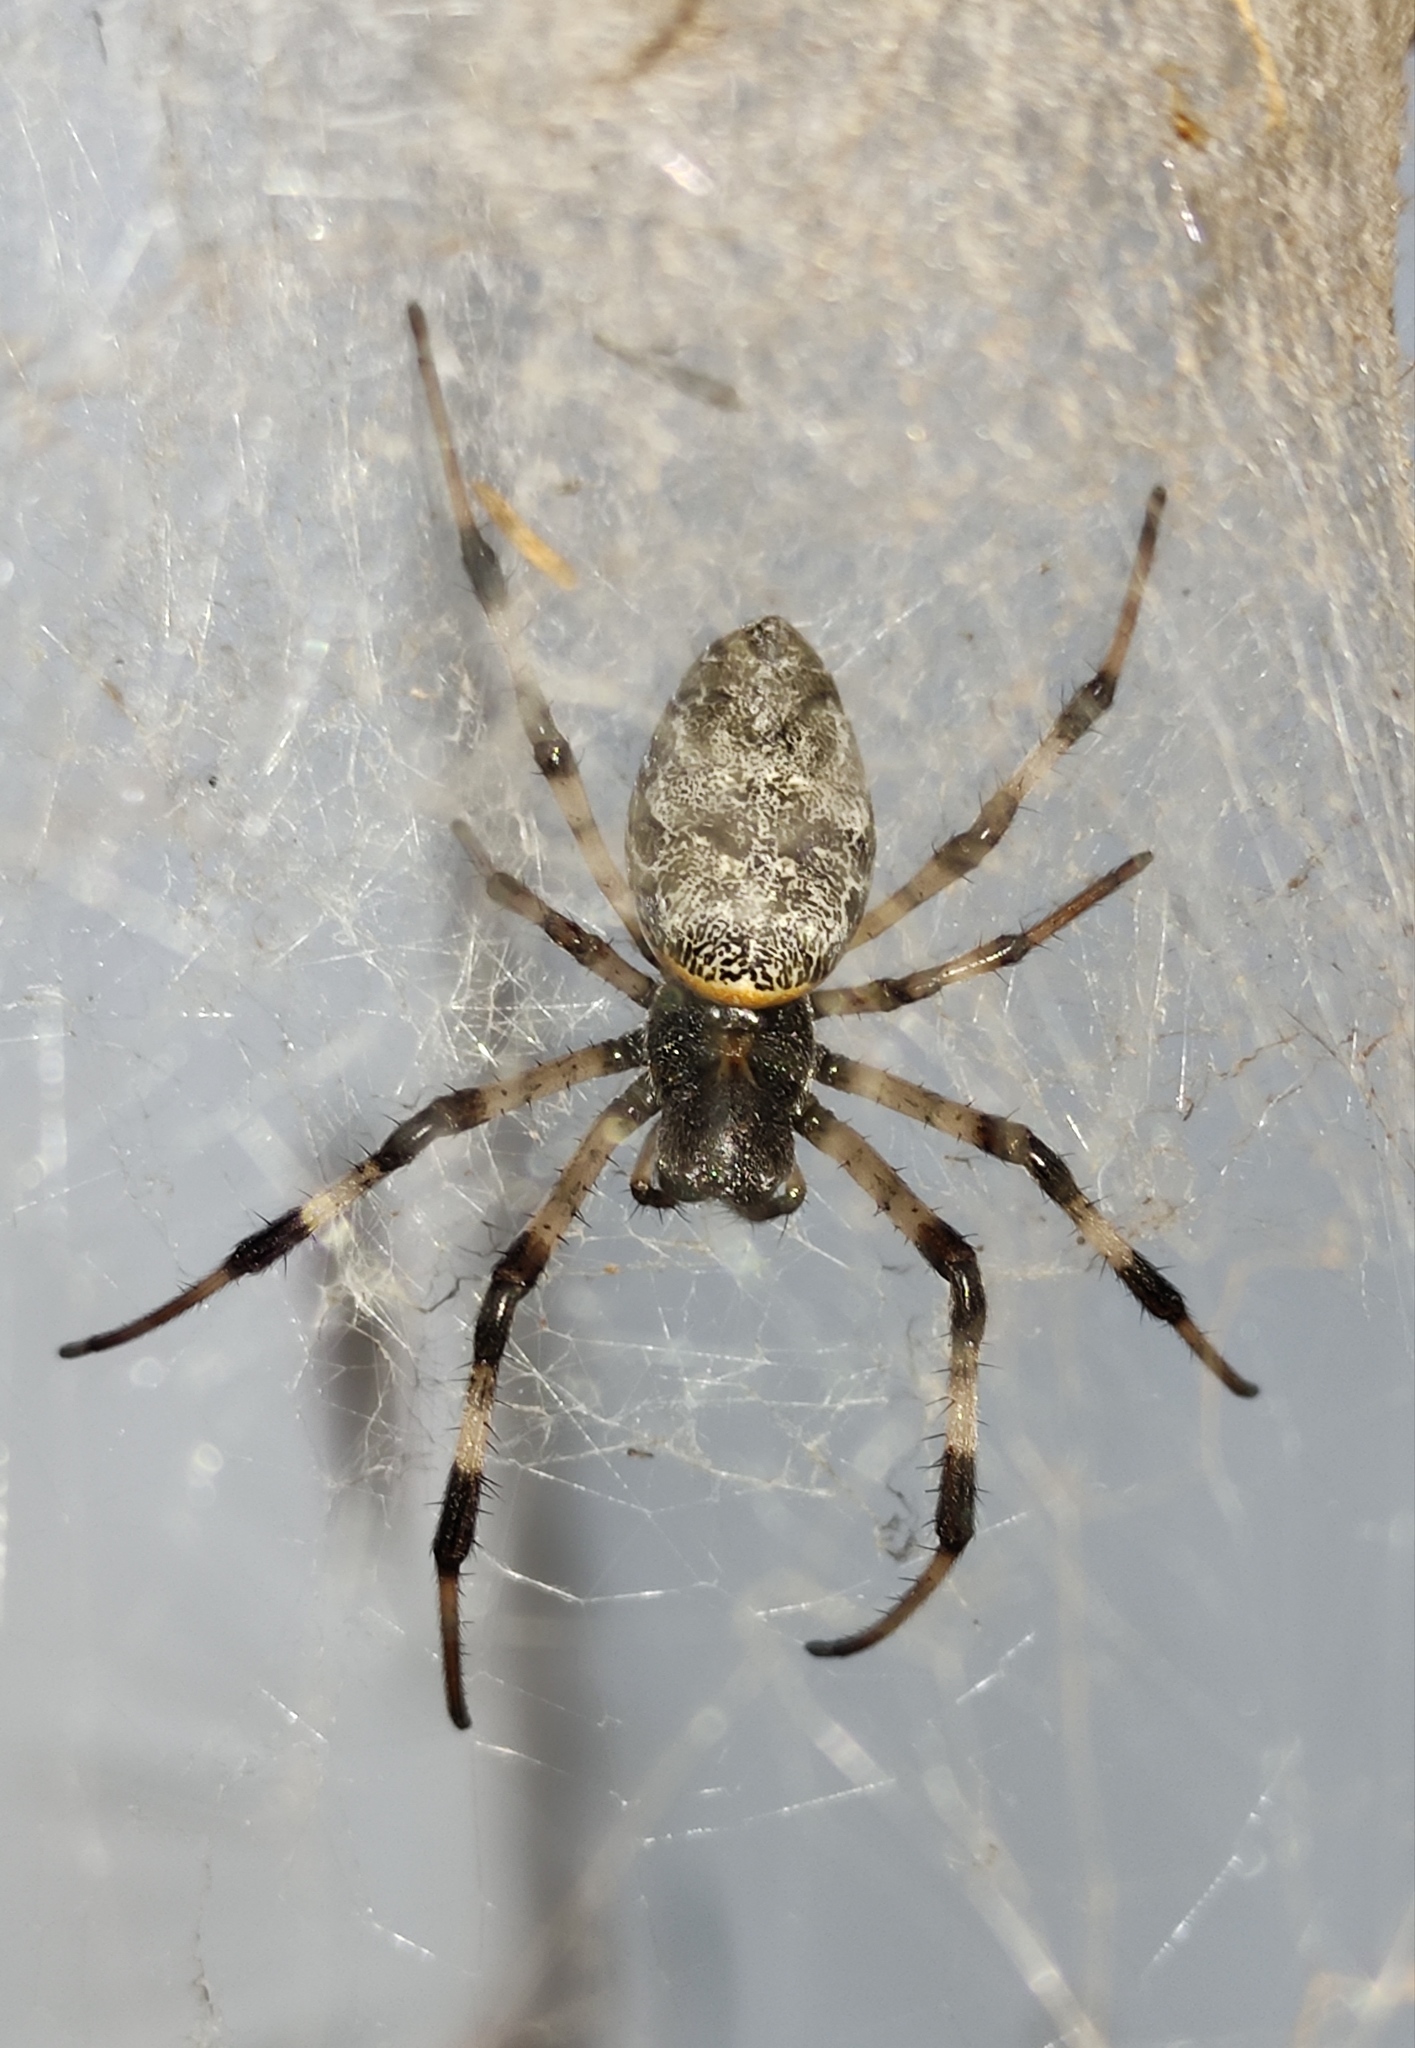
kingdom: Animalia
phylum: Arthropoda
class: Arachnida
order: Araneae
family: Araneidae
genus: Nephilingis
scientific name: Nephilingis cruentata
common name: African hermit spider
